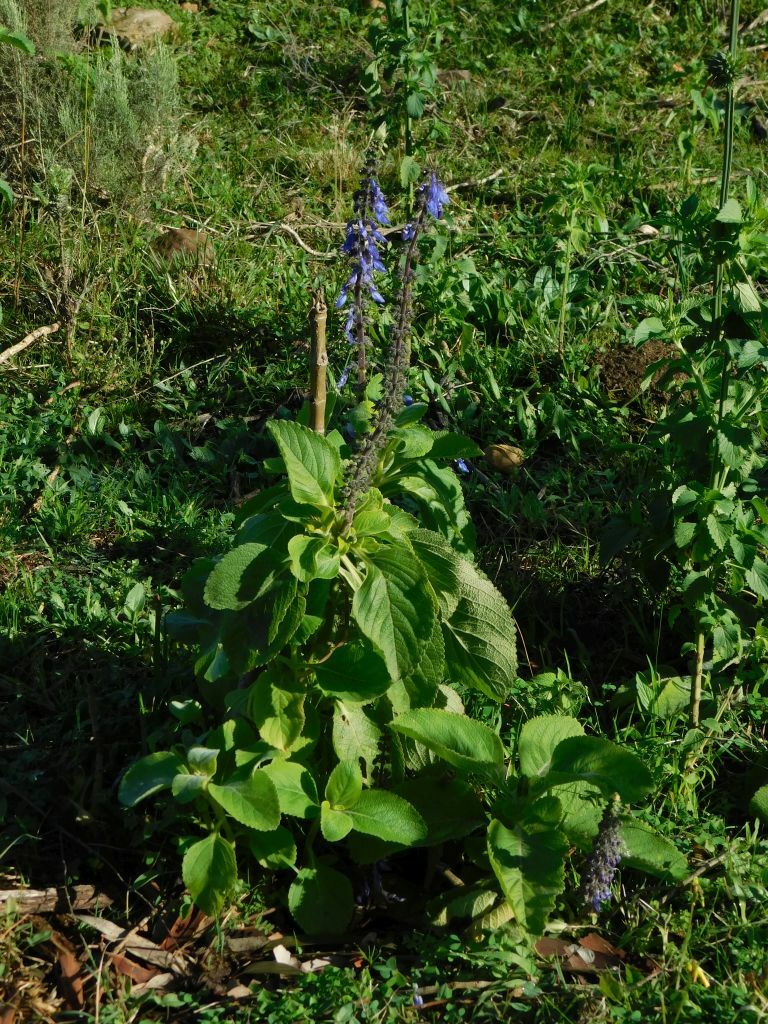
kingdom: Plantae
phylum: Tracheophyta
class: Magnoliopsida
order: Lamiales
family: Lamiaceae
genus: Coleus
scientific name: Coleus barbatus
